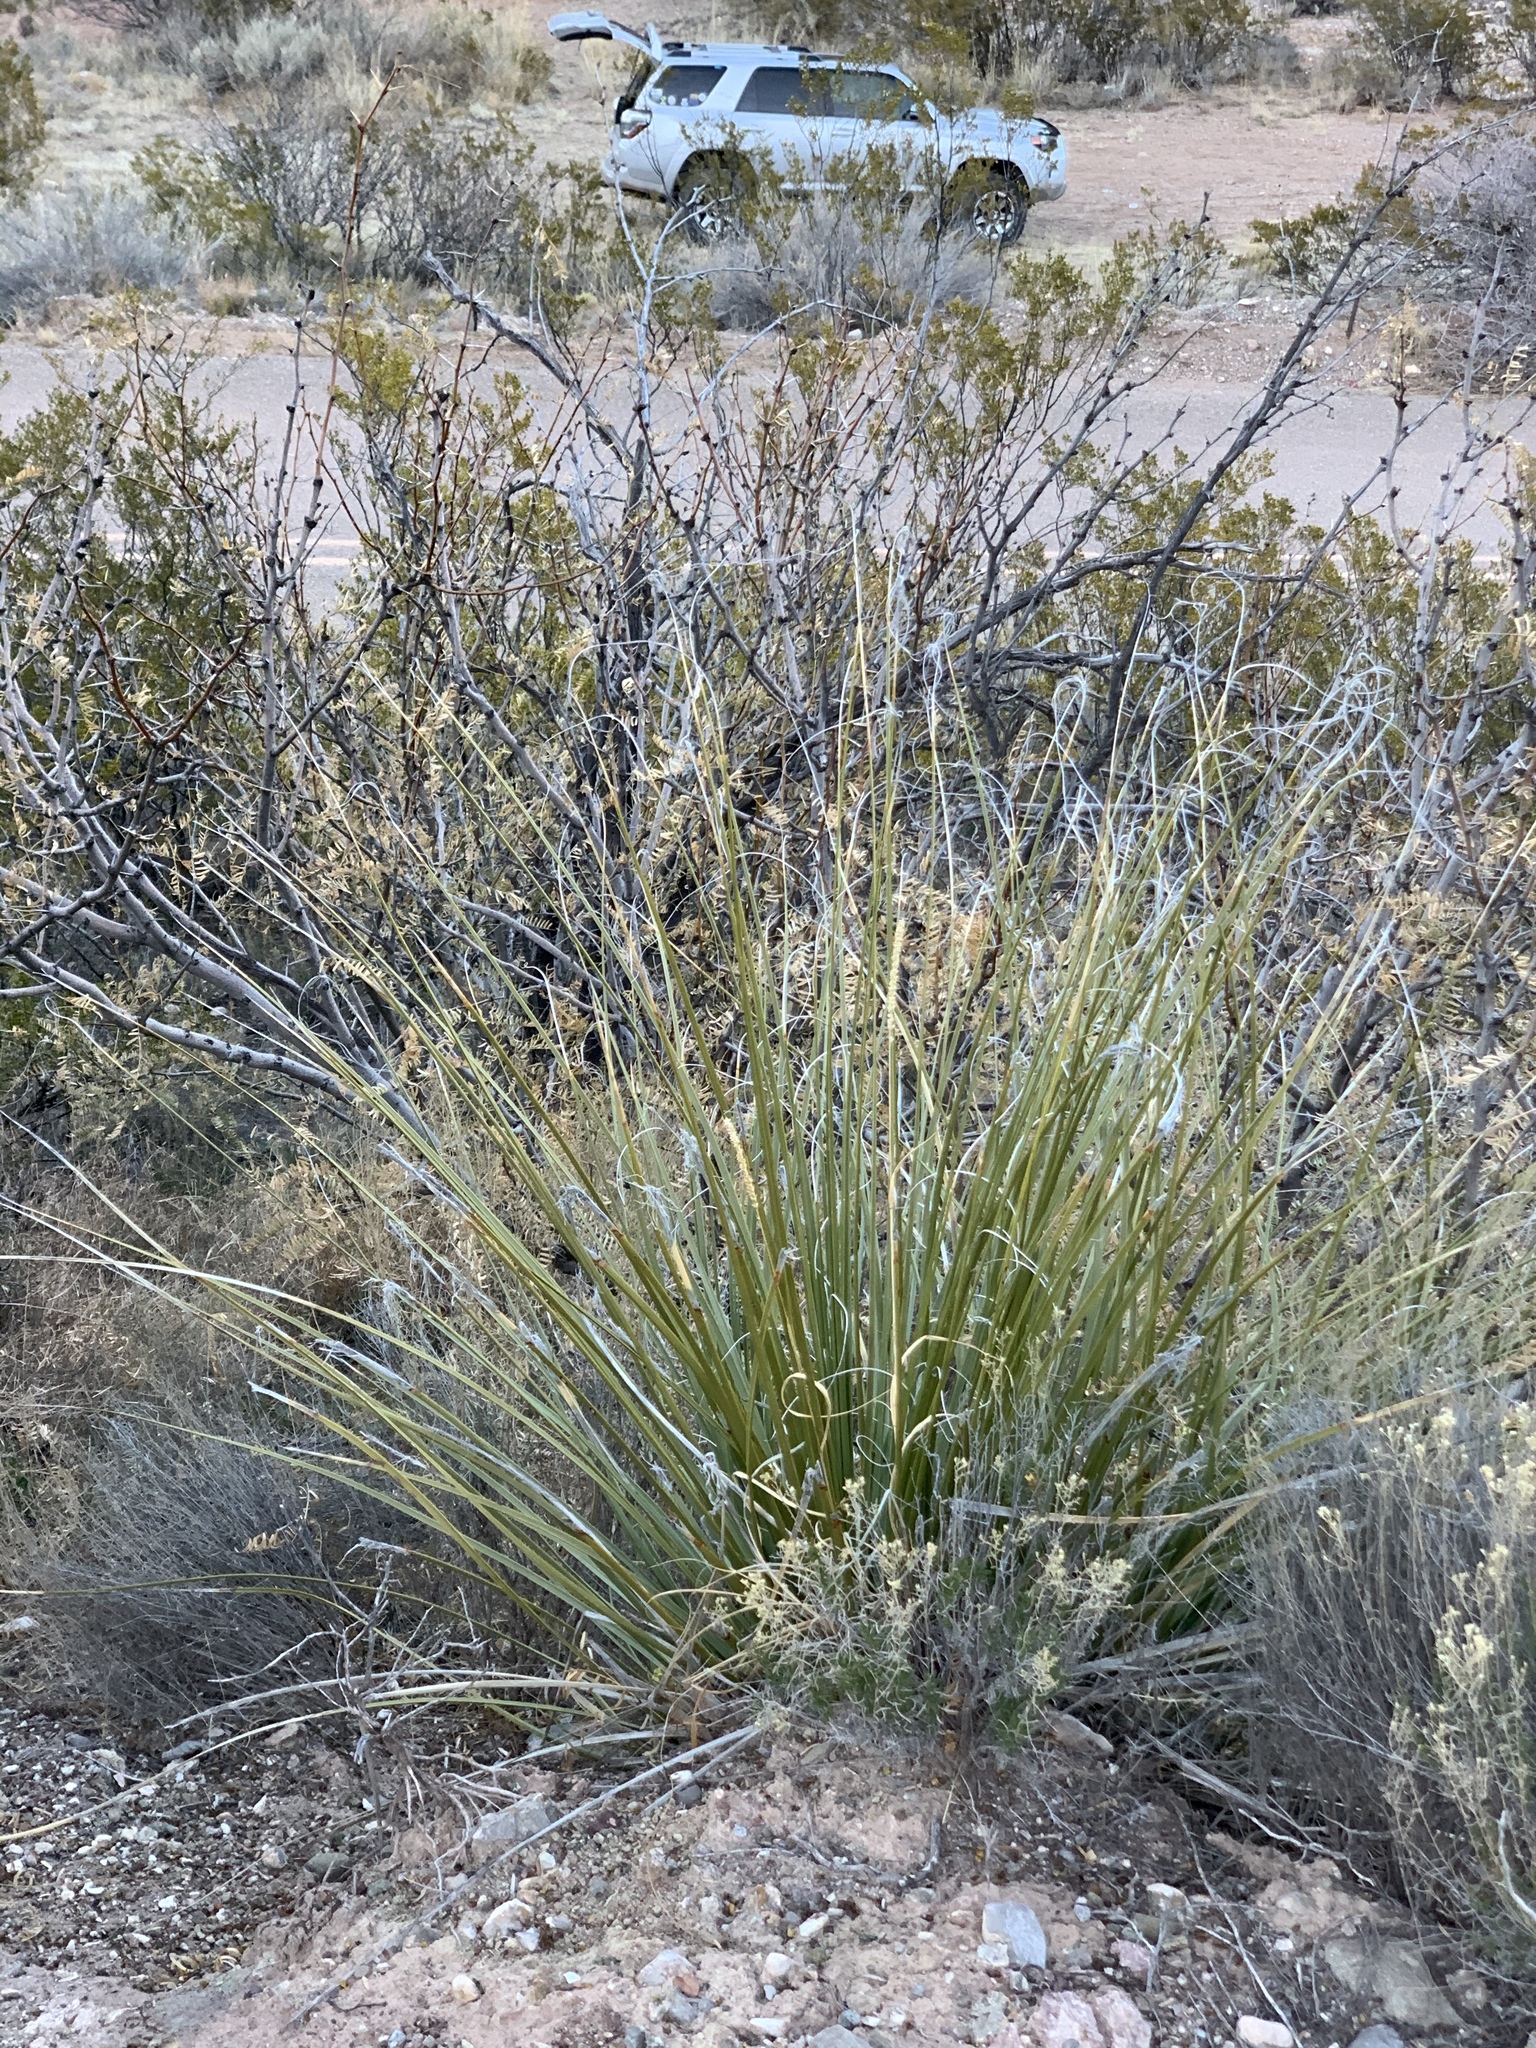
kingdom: Plantae
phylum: Tracheophyta
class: Liliopsida
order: Asparagales
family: Asparagaceae
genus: Nolina
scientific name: Nolina microcarpa
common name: Bear-grass
